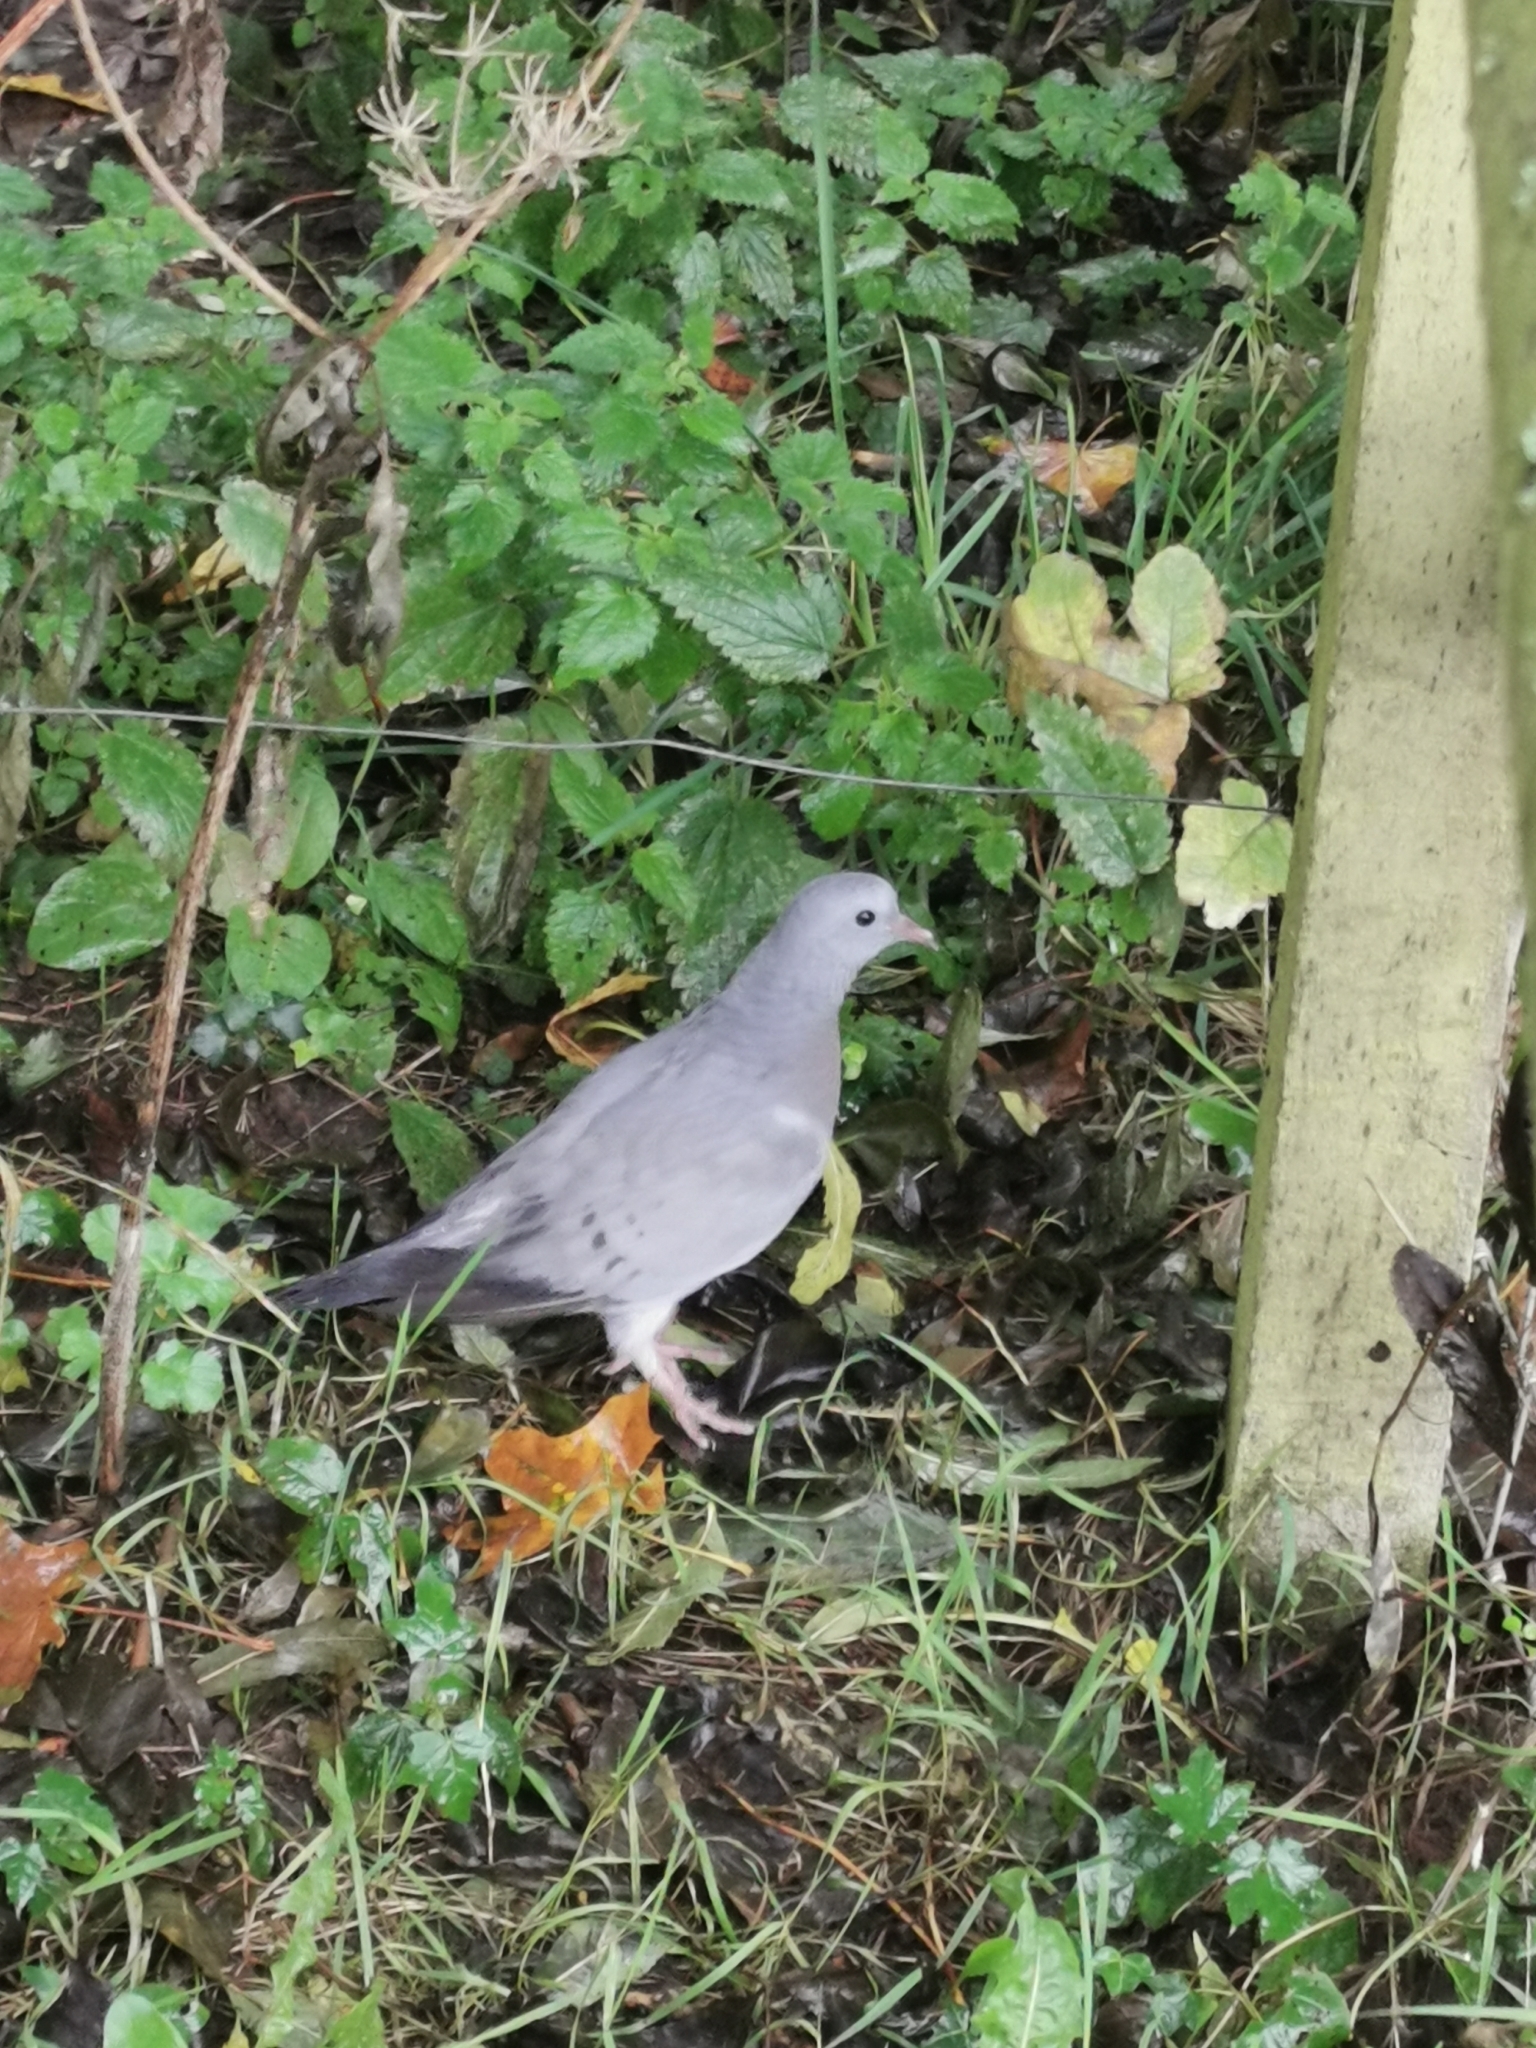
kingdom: Animalia
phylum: Chordata
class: Aves
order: Columbiformes
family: Columbidae
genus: Columba
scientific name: Columba oenas
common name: Stock dove
